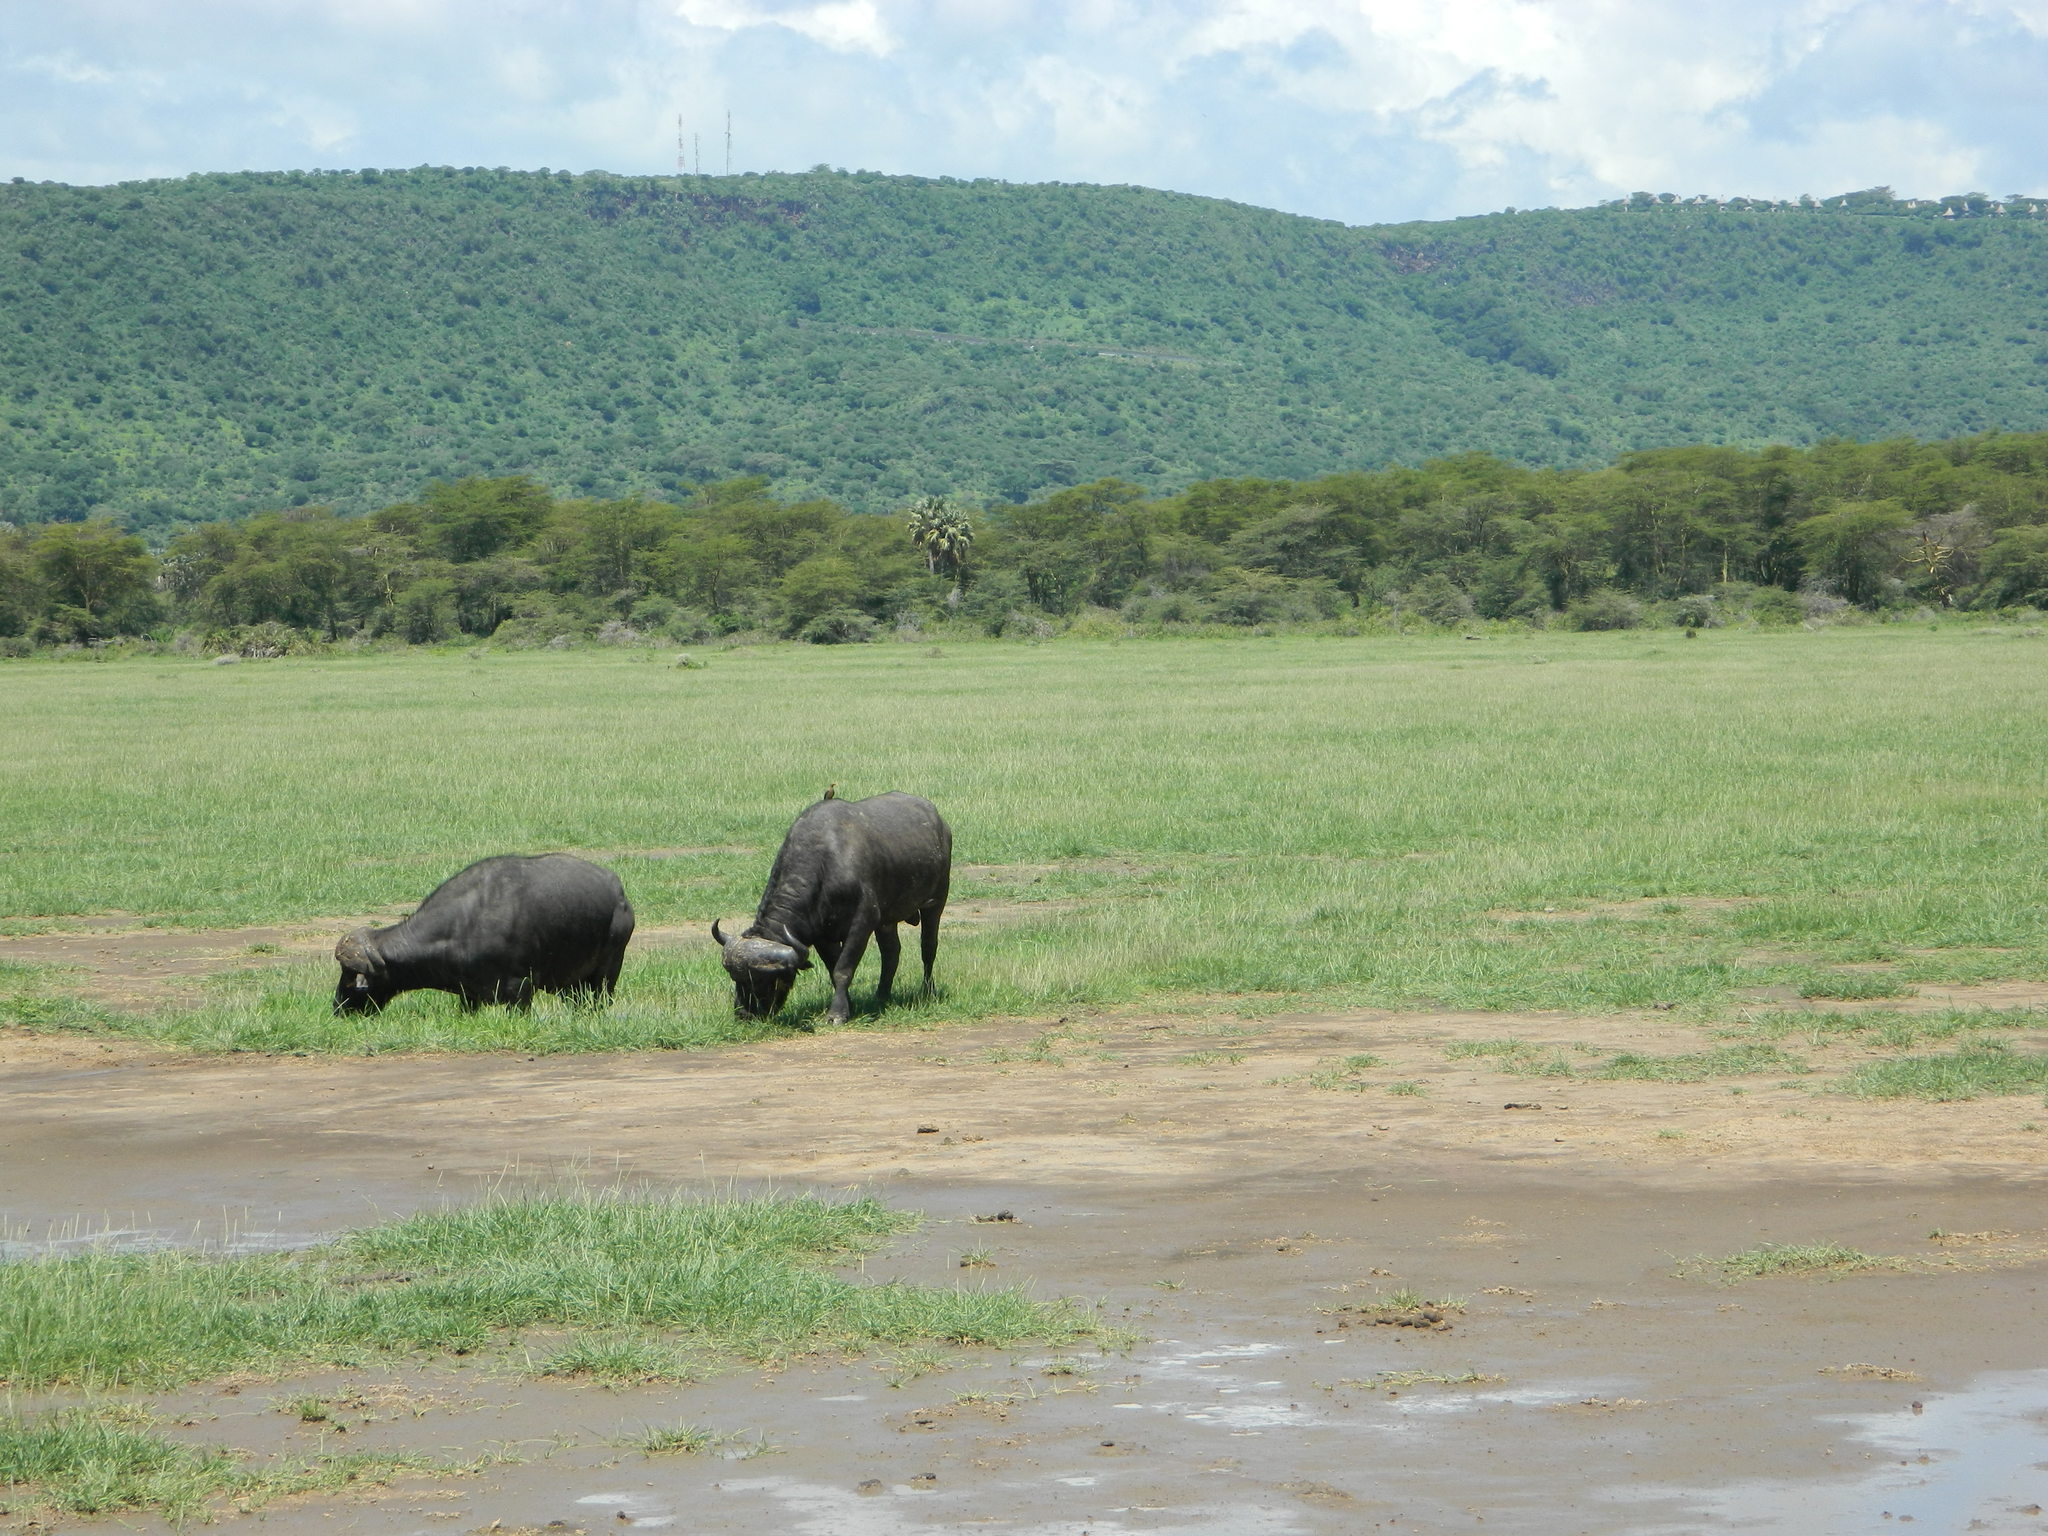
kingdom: Animalia
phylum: Chordata
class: Mammalia
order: Artiodactyla
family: Bovidae
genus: Syncerus
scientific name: Syncerus caffer
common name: African buffalo
